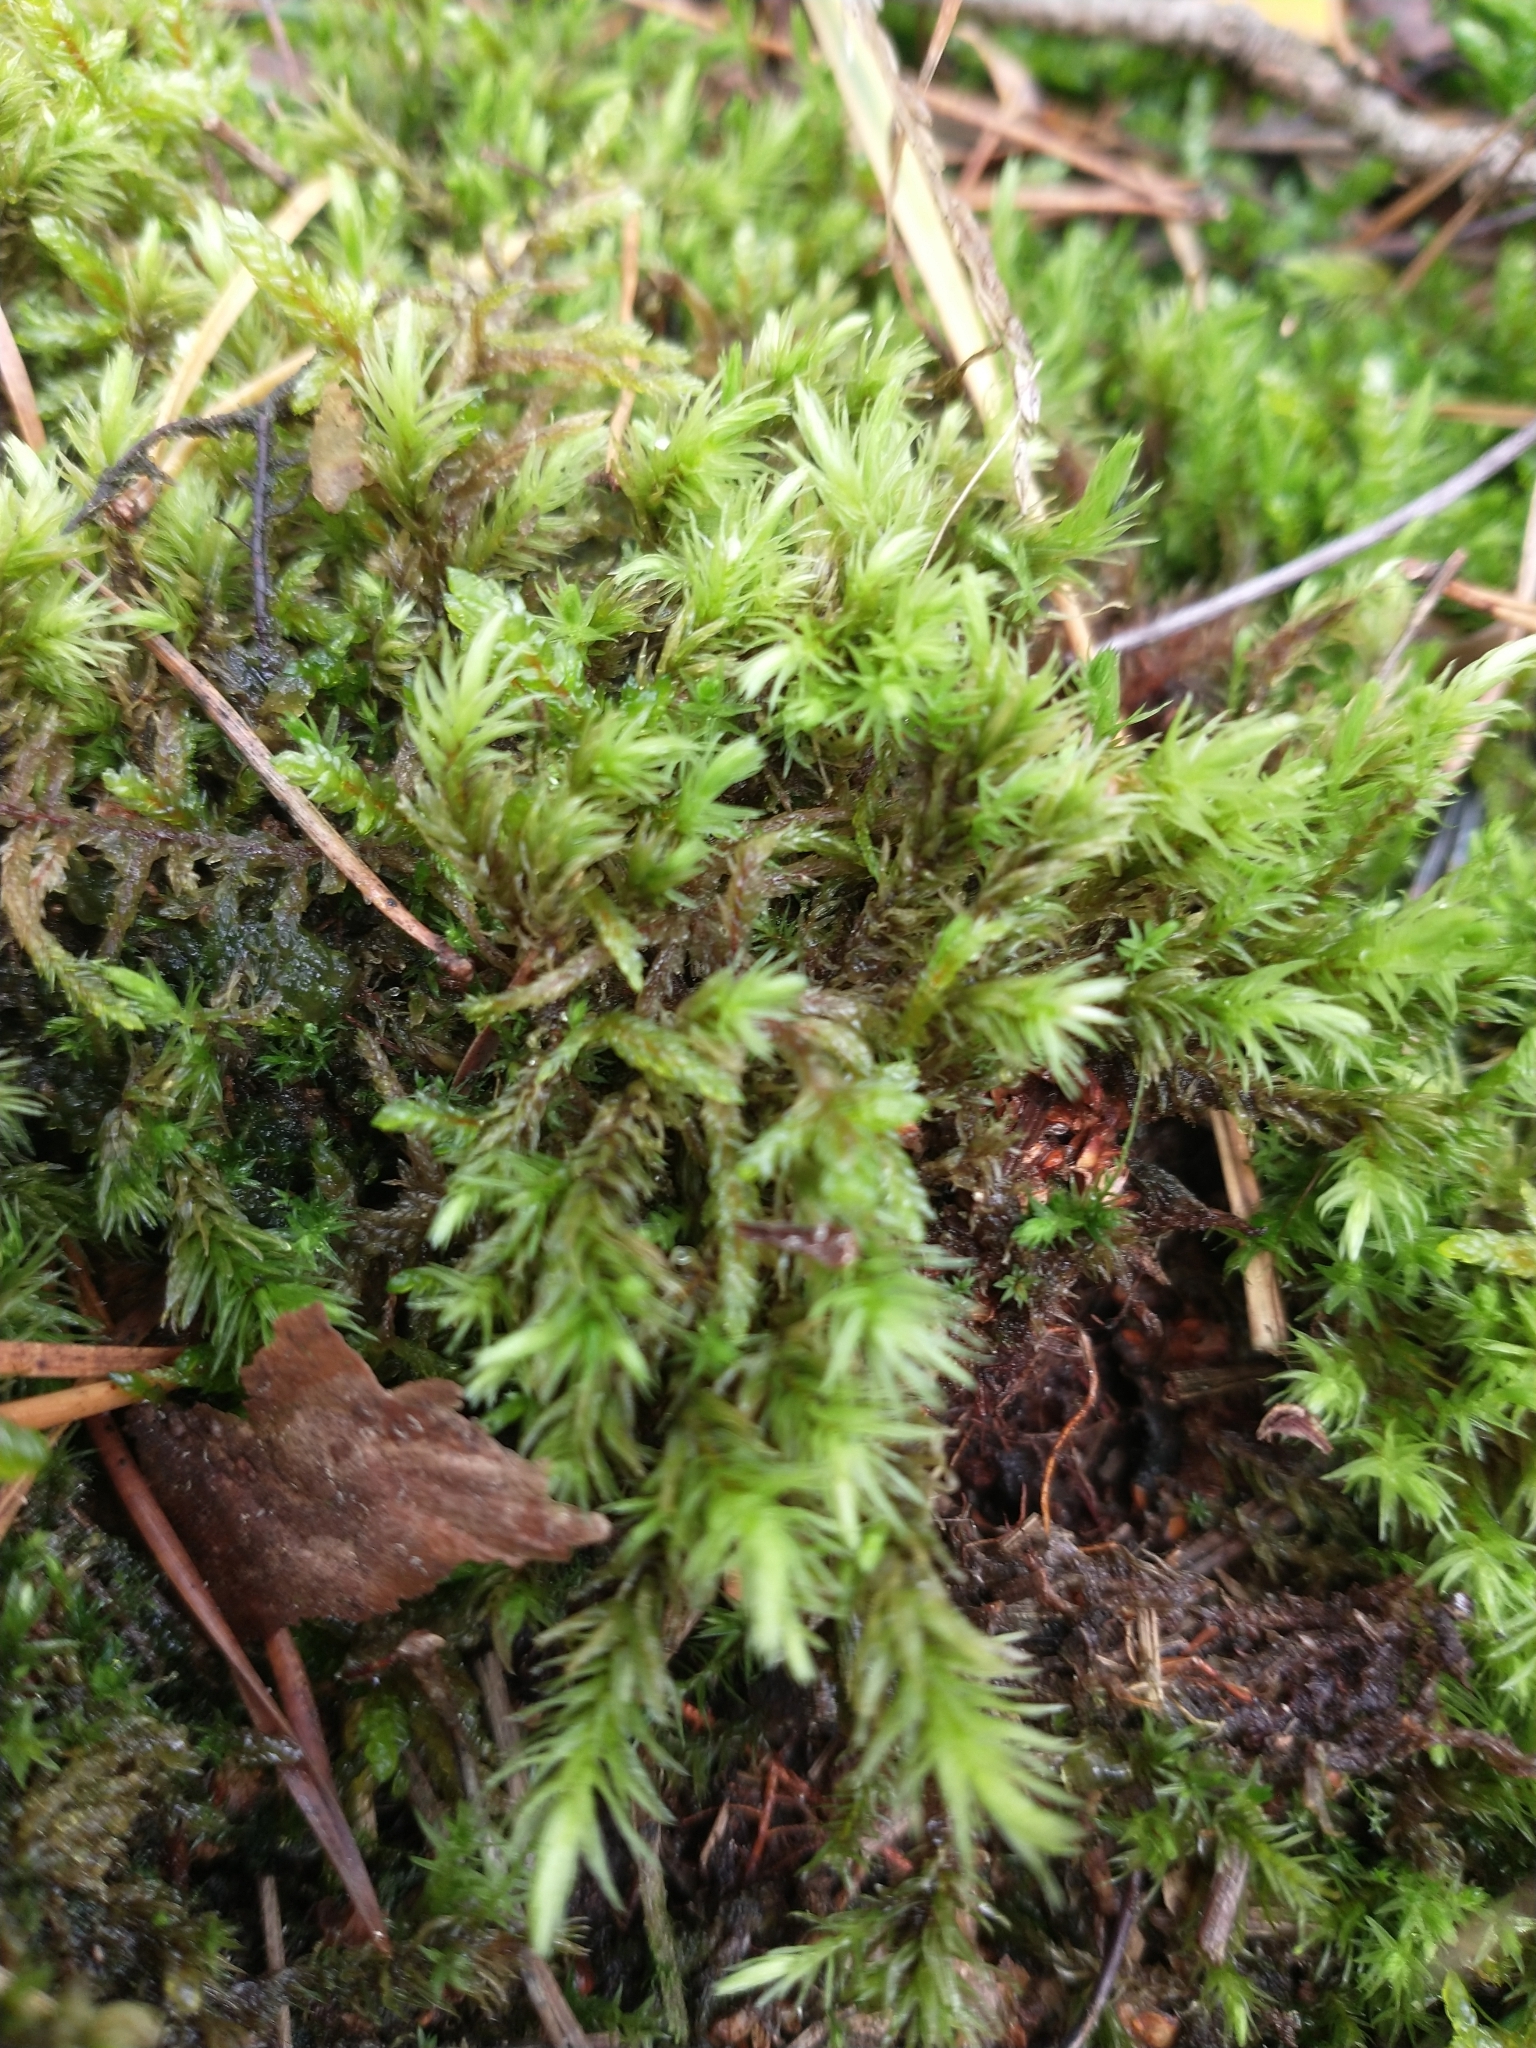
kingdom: Plantae
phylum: Bryophyta
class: Bryopsida
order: Aulacomniales
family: Aulacomniaceae
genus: Aulacomnium
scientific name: Aulacomnium palustre
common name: Bog groove-moss
